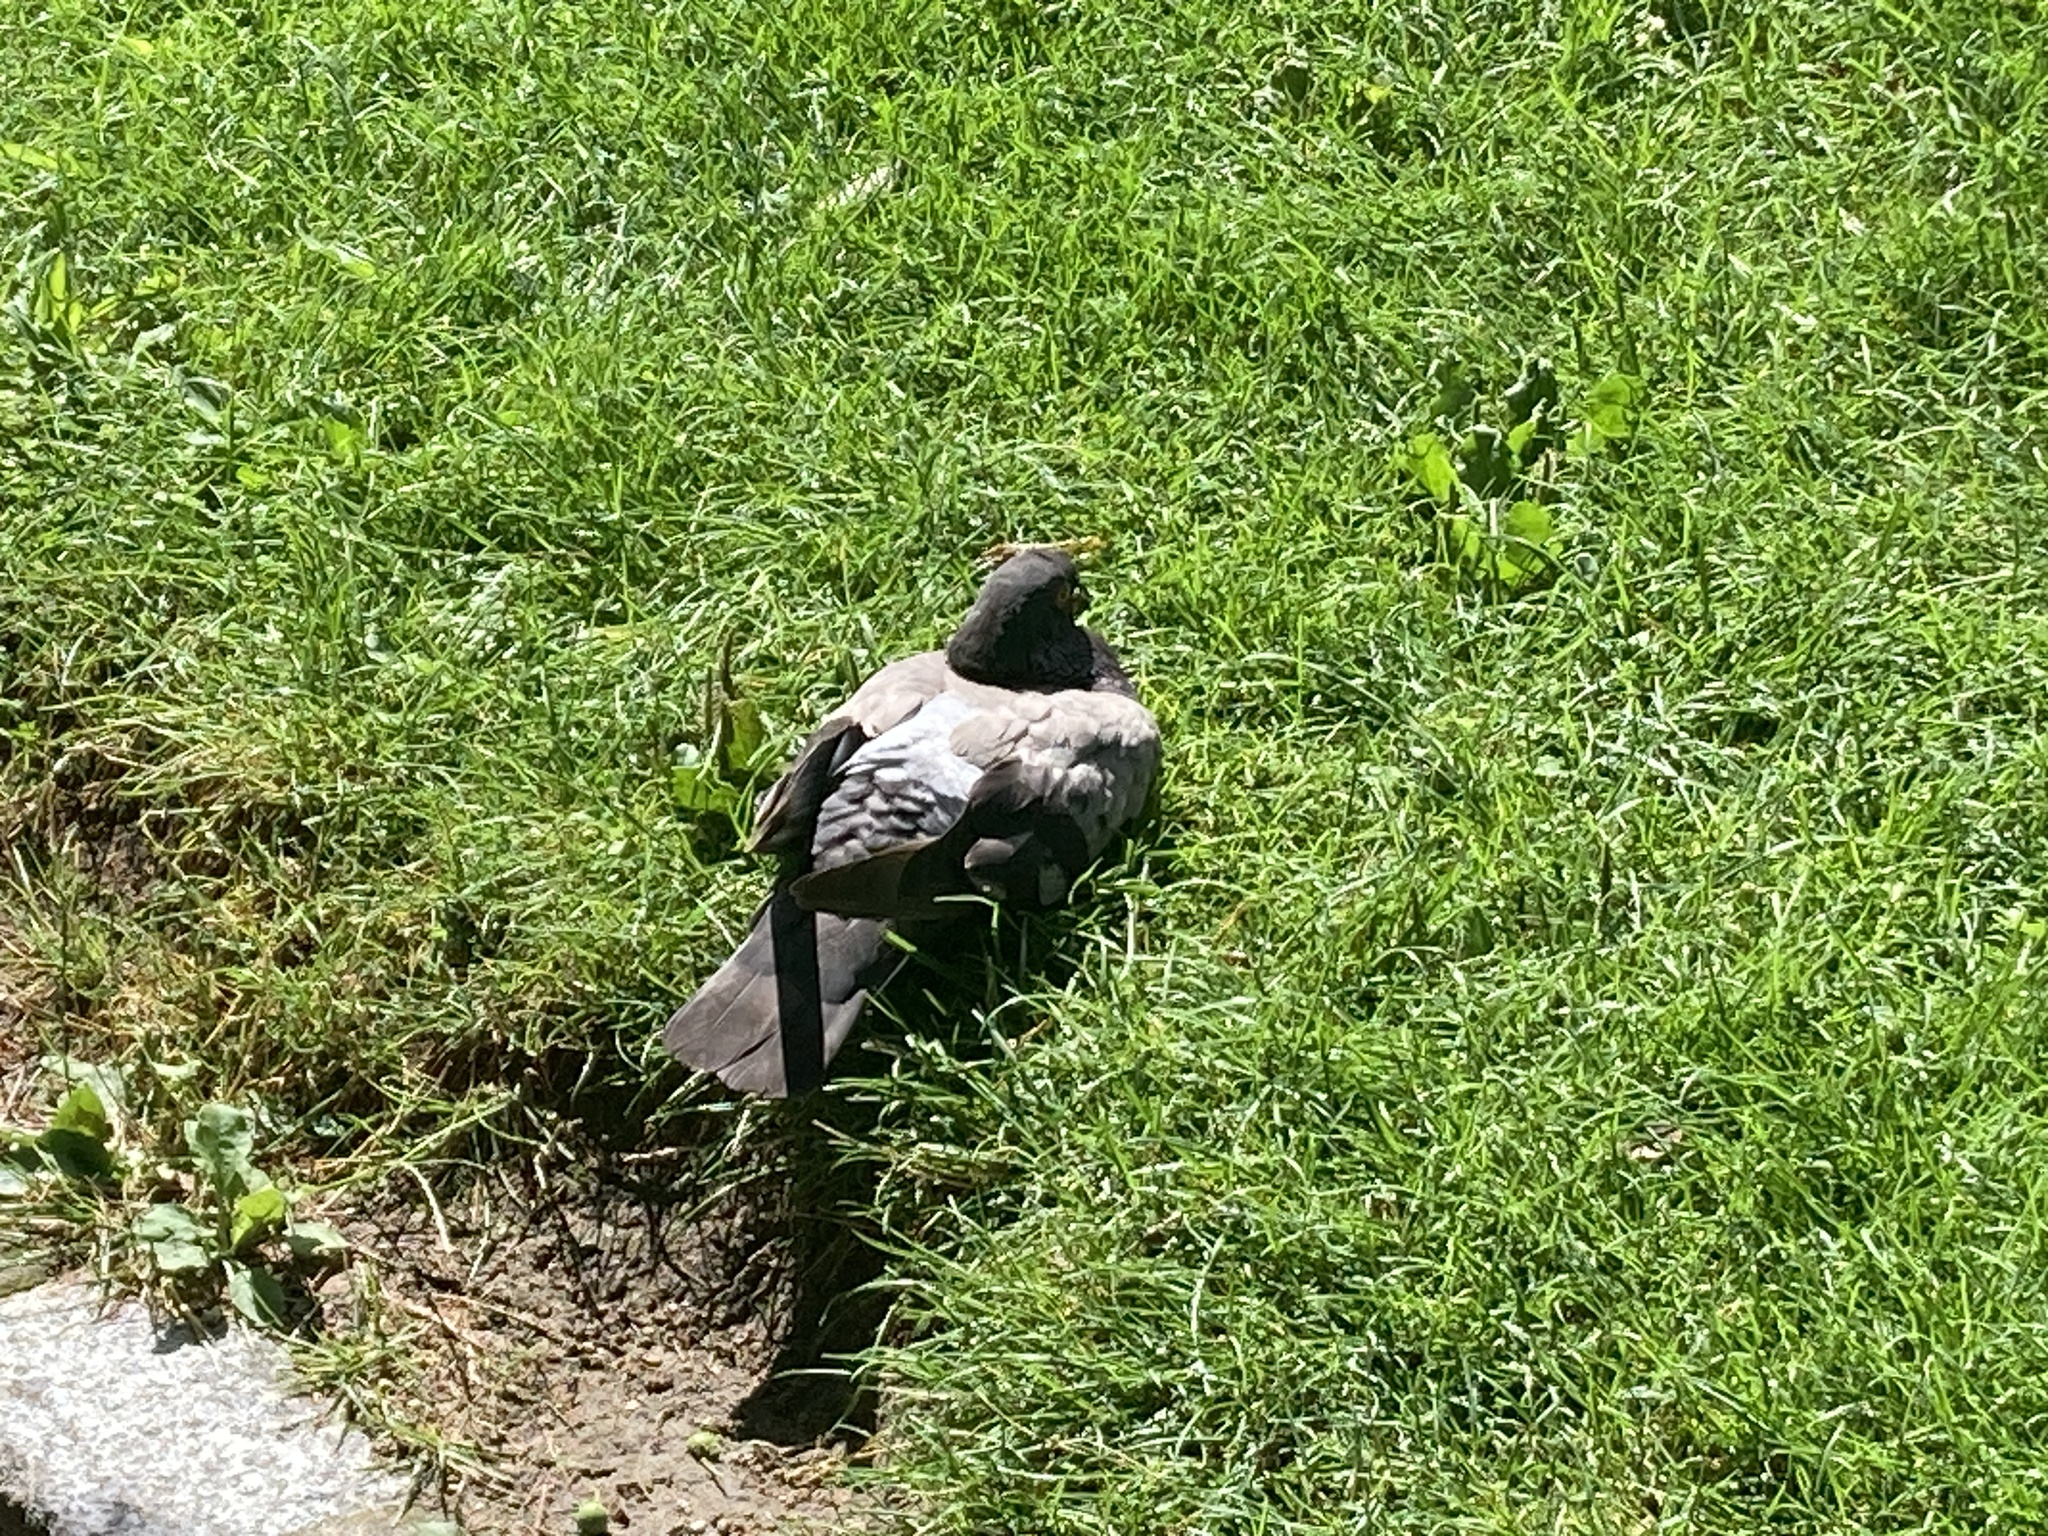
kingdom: Animalia
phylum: Chordata
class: Aves
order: Columbiformes
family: Columbidae
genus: Columba
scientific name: Columba livia
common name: Rock pigeon
